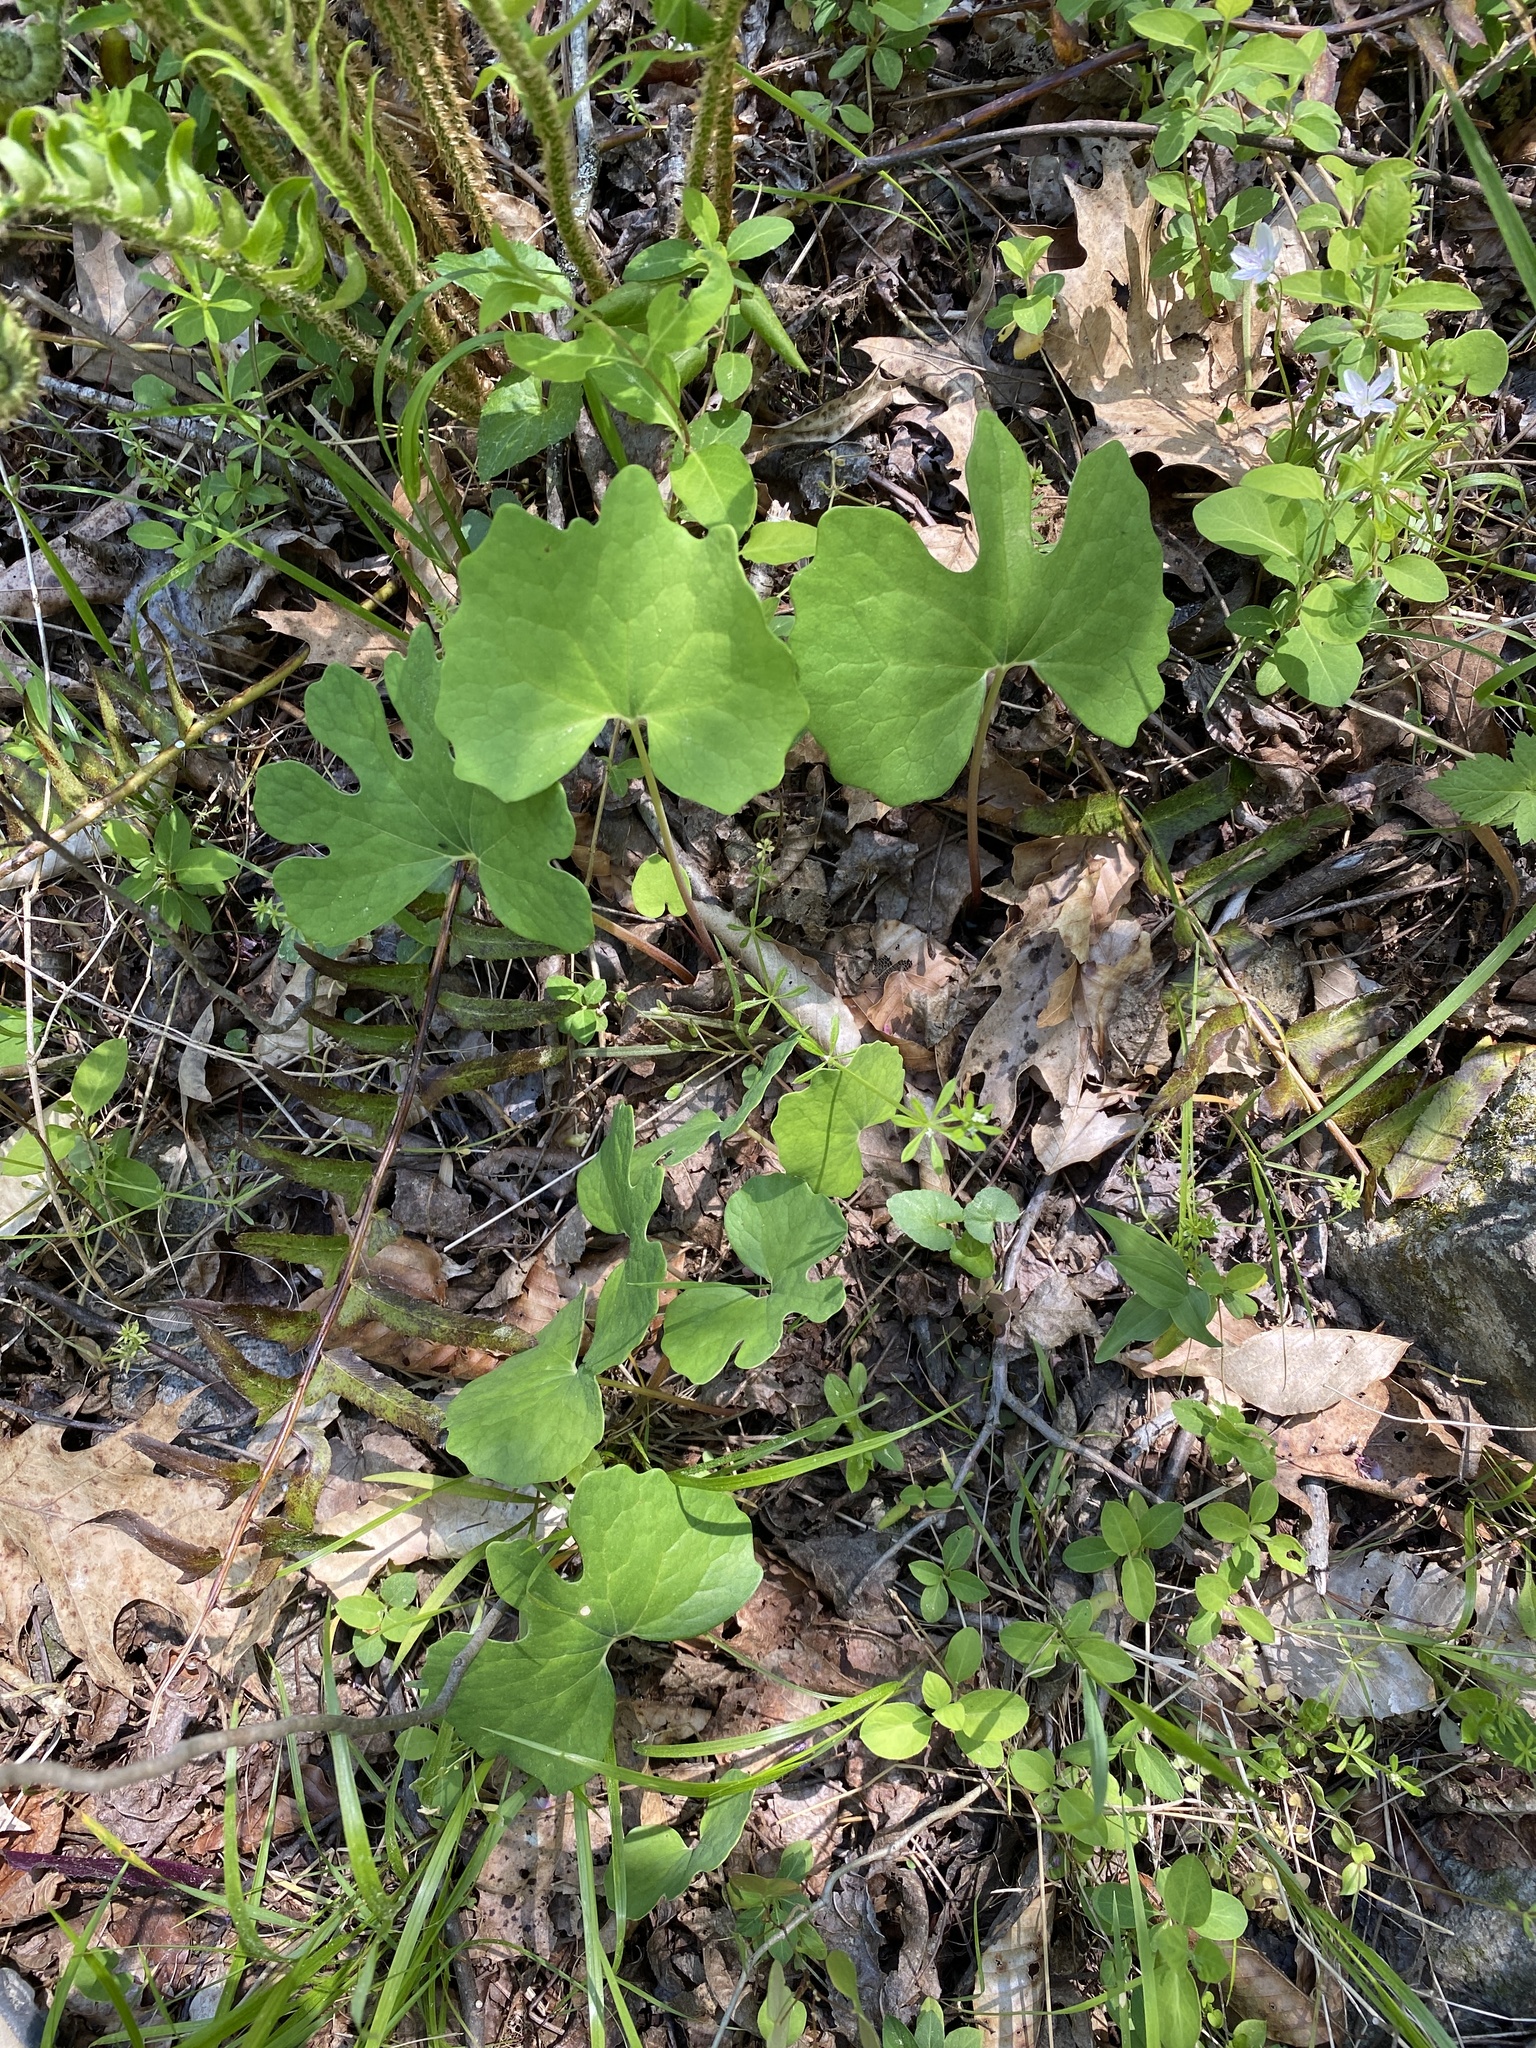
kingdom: Plantae
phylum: Tracheophyta
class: Magnoliopsida
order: Ranunculales
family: Papaveraceae
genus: Sanguinaria
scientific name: Sanguinaria canadensis
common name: Bloodroot
